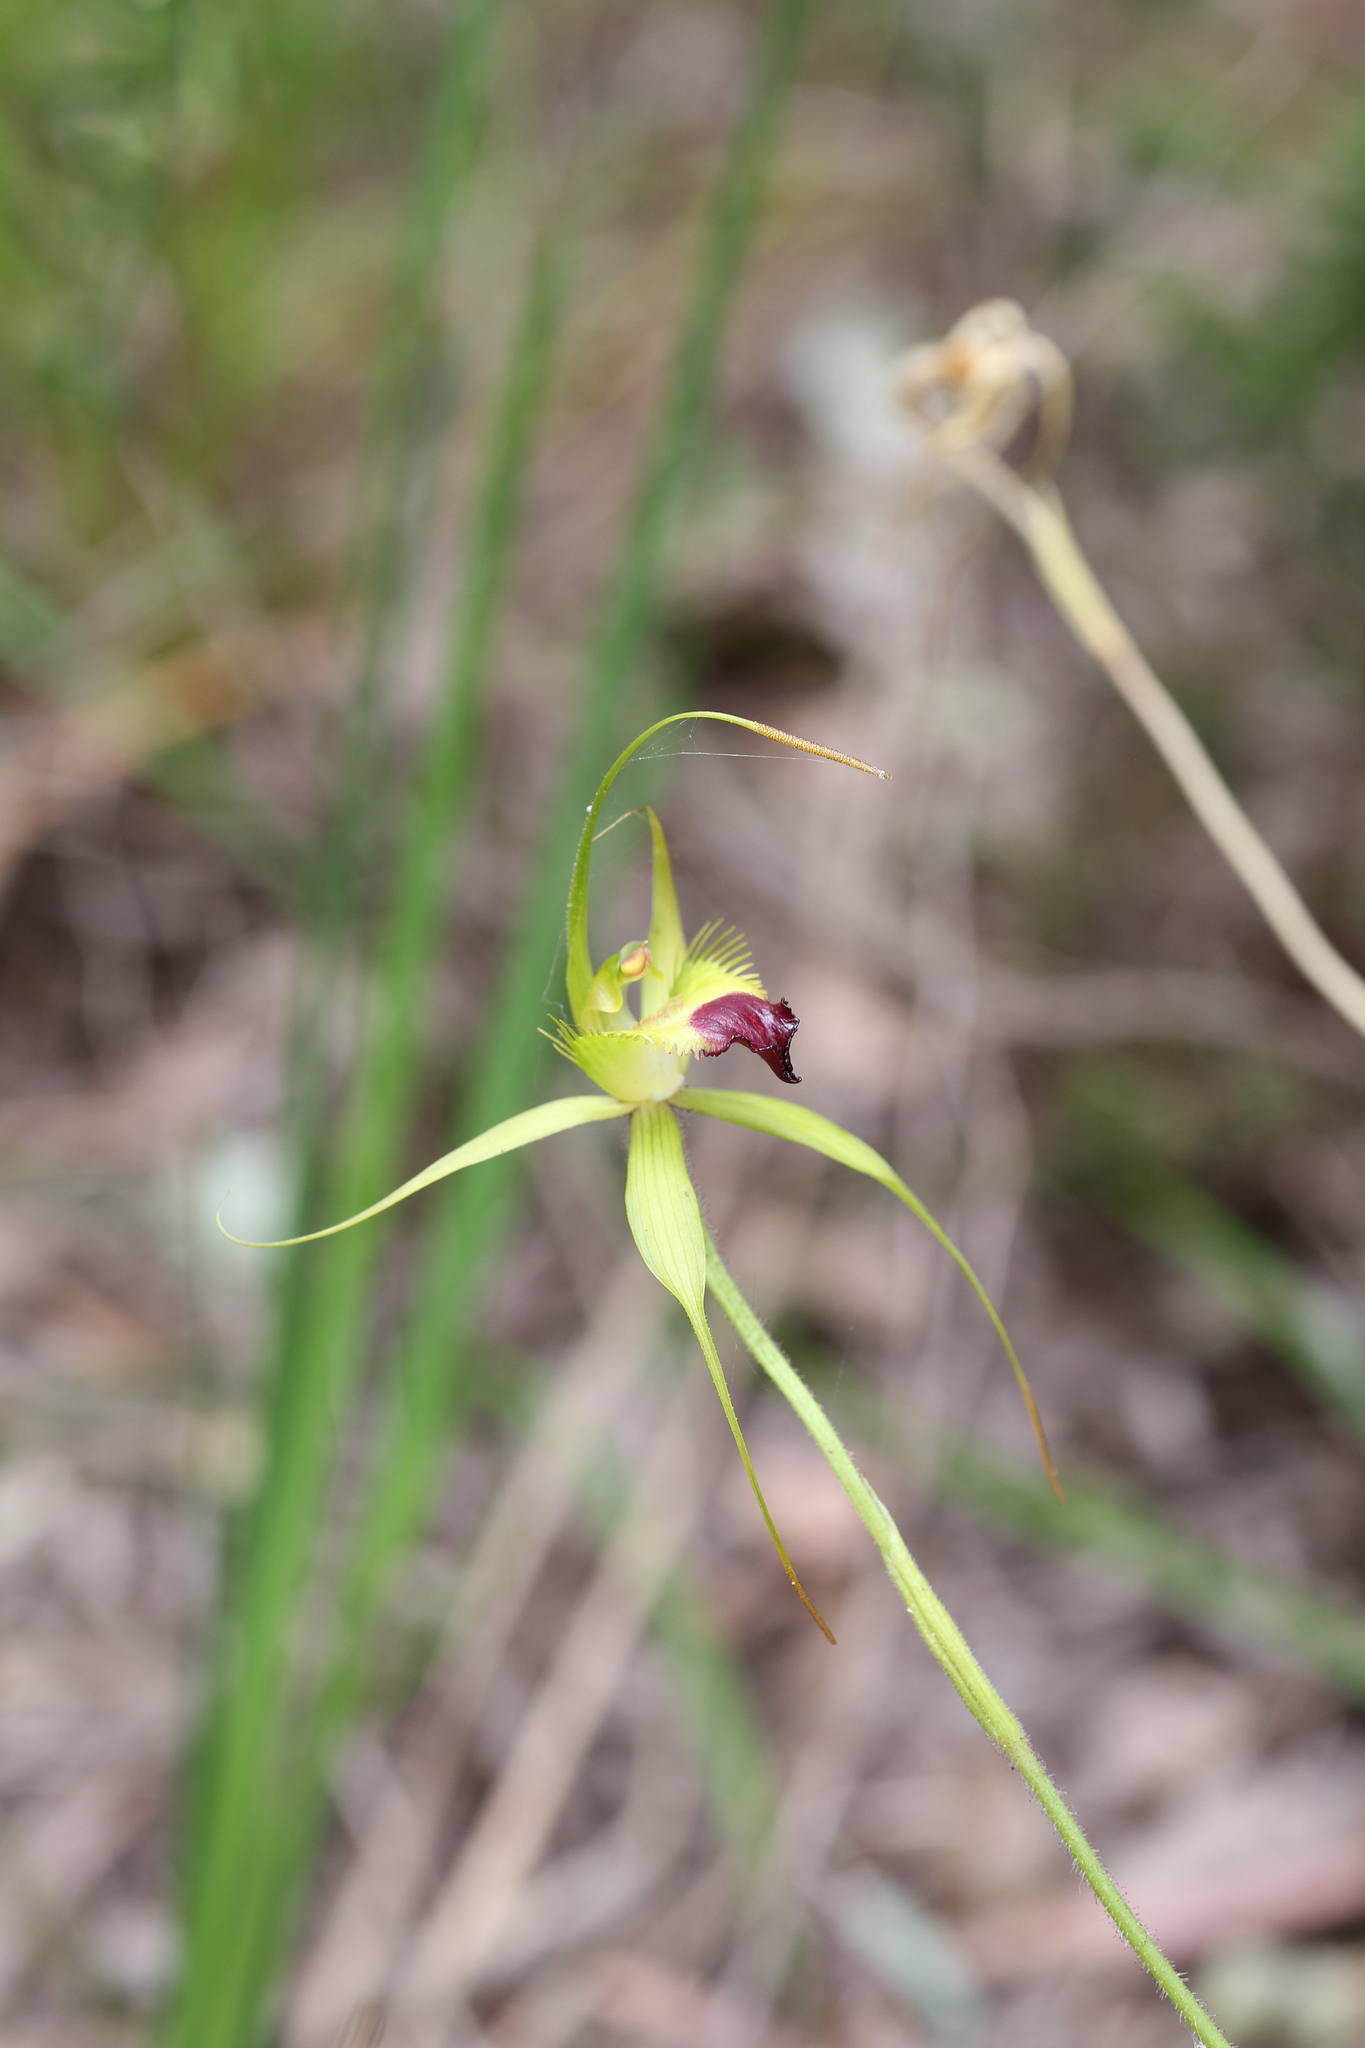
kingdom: Plantae
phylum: Tracheophyta
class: Liliopsida
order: Asparagales
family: Orchidaceae
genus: Caladenia
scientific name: Caladenia infundibularis
